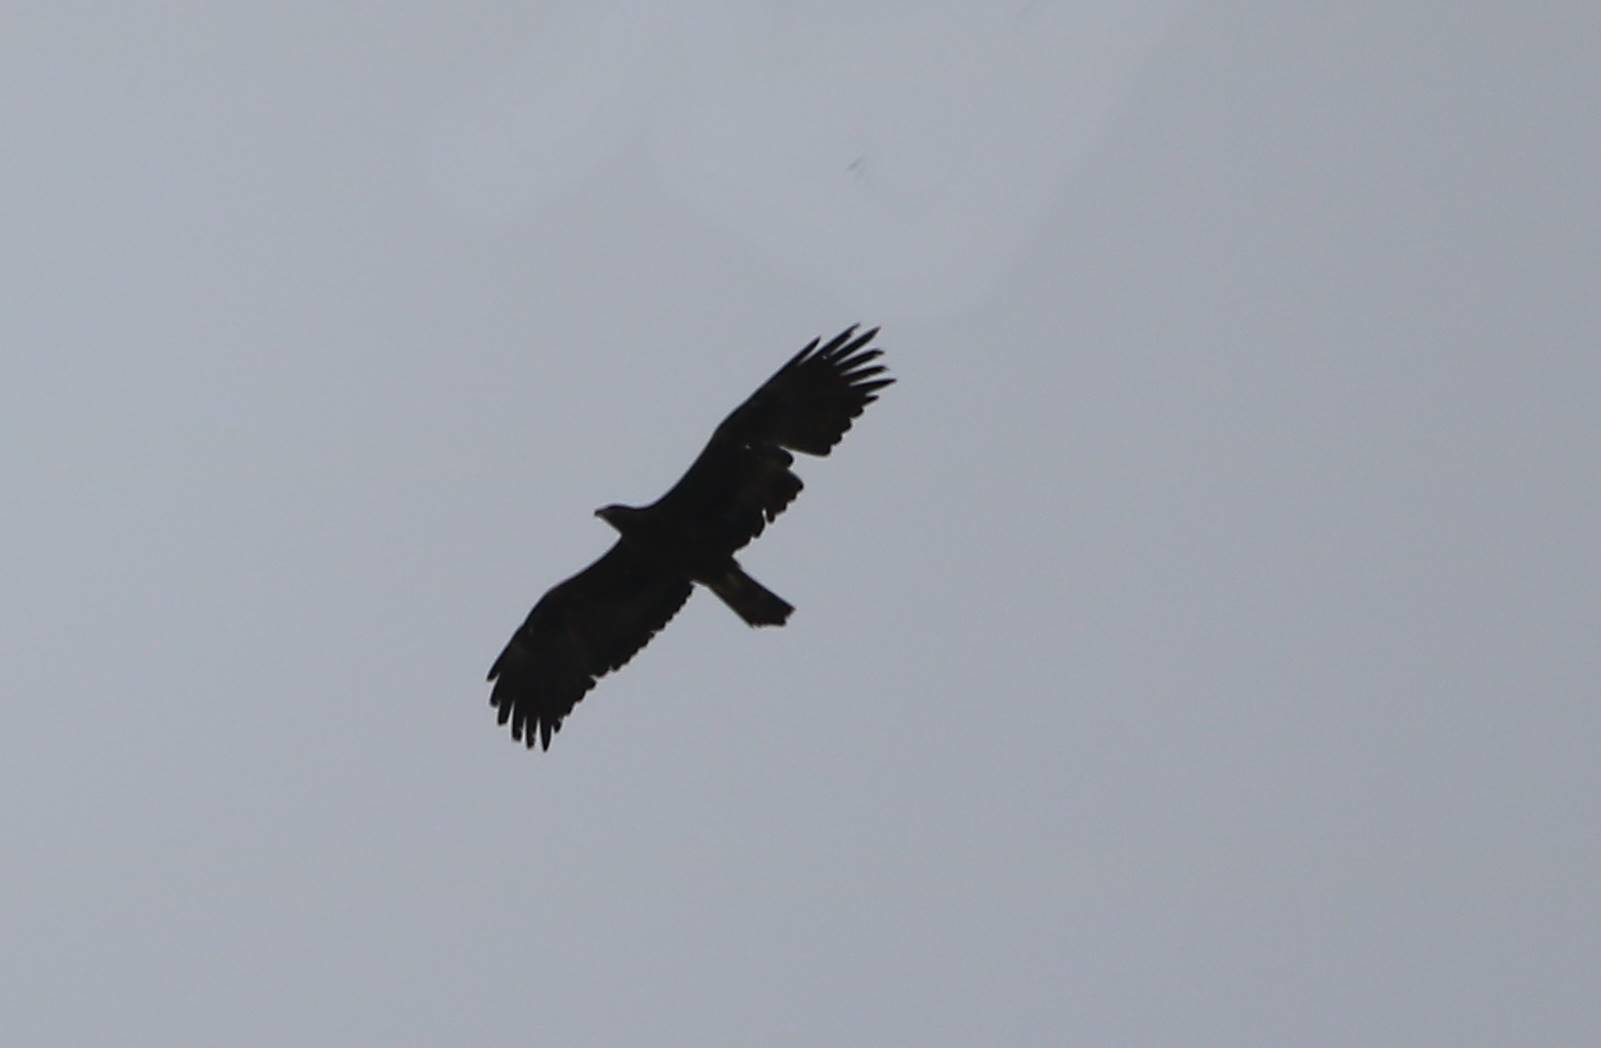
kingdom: Animalia
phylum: Chordata
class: Aves
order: Accipitriformes
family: Accipitridae
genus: Aquila
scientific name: Aquila chrysaetos
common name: Golden eagle
